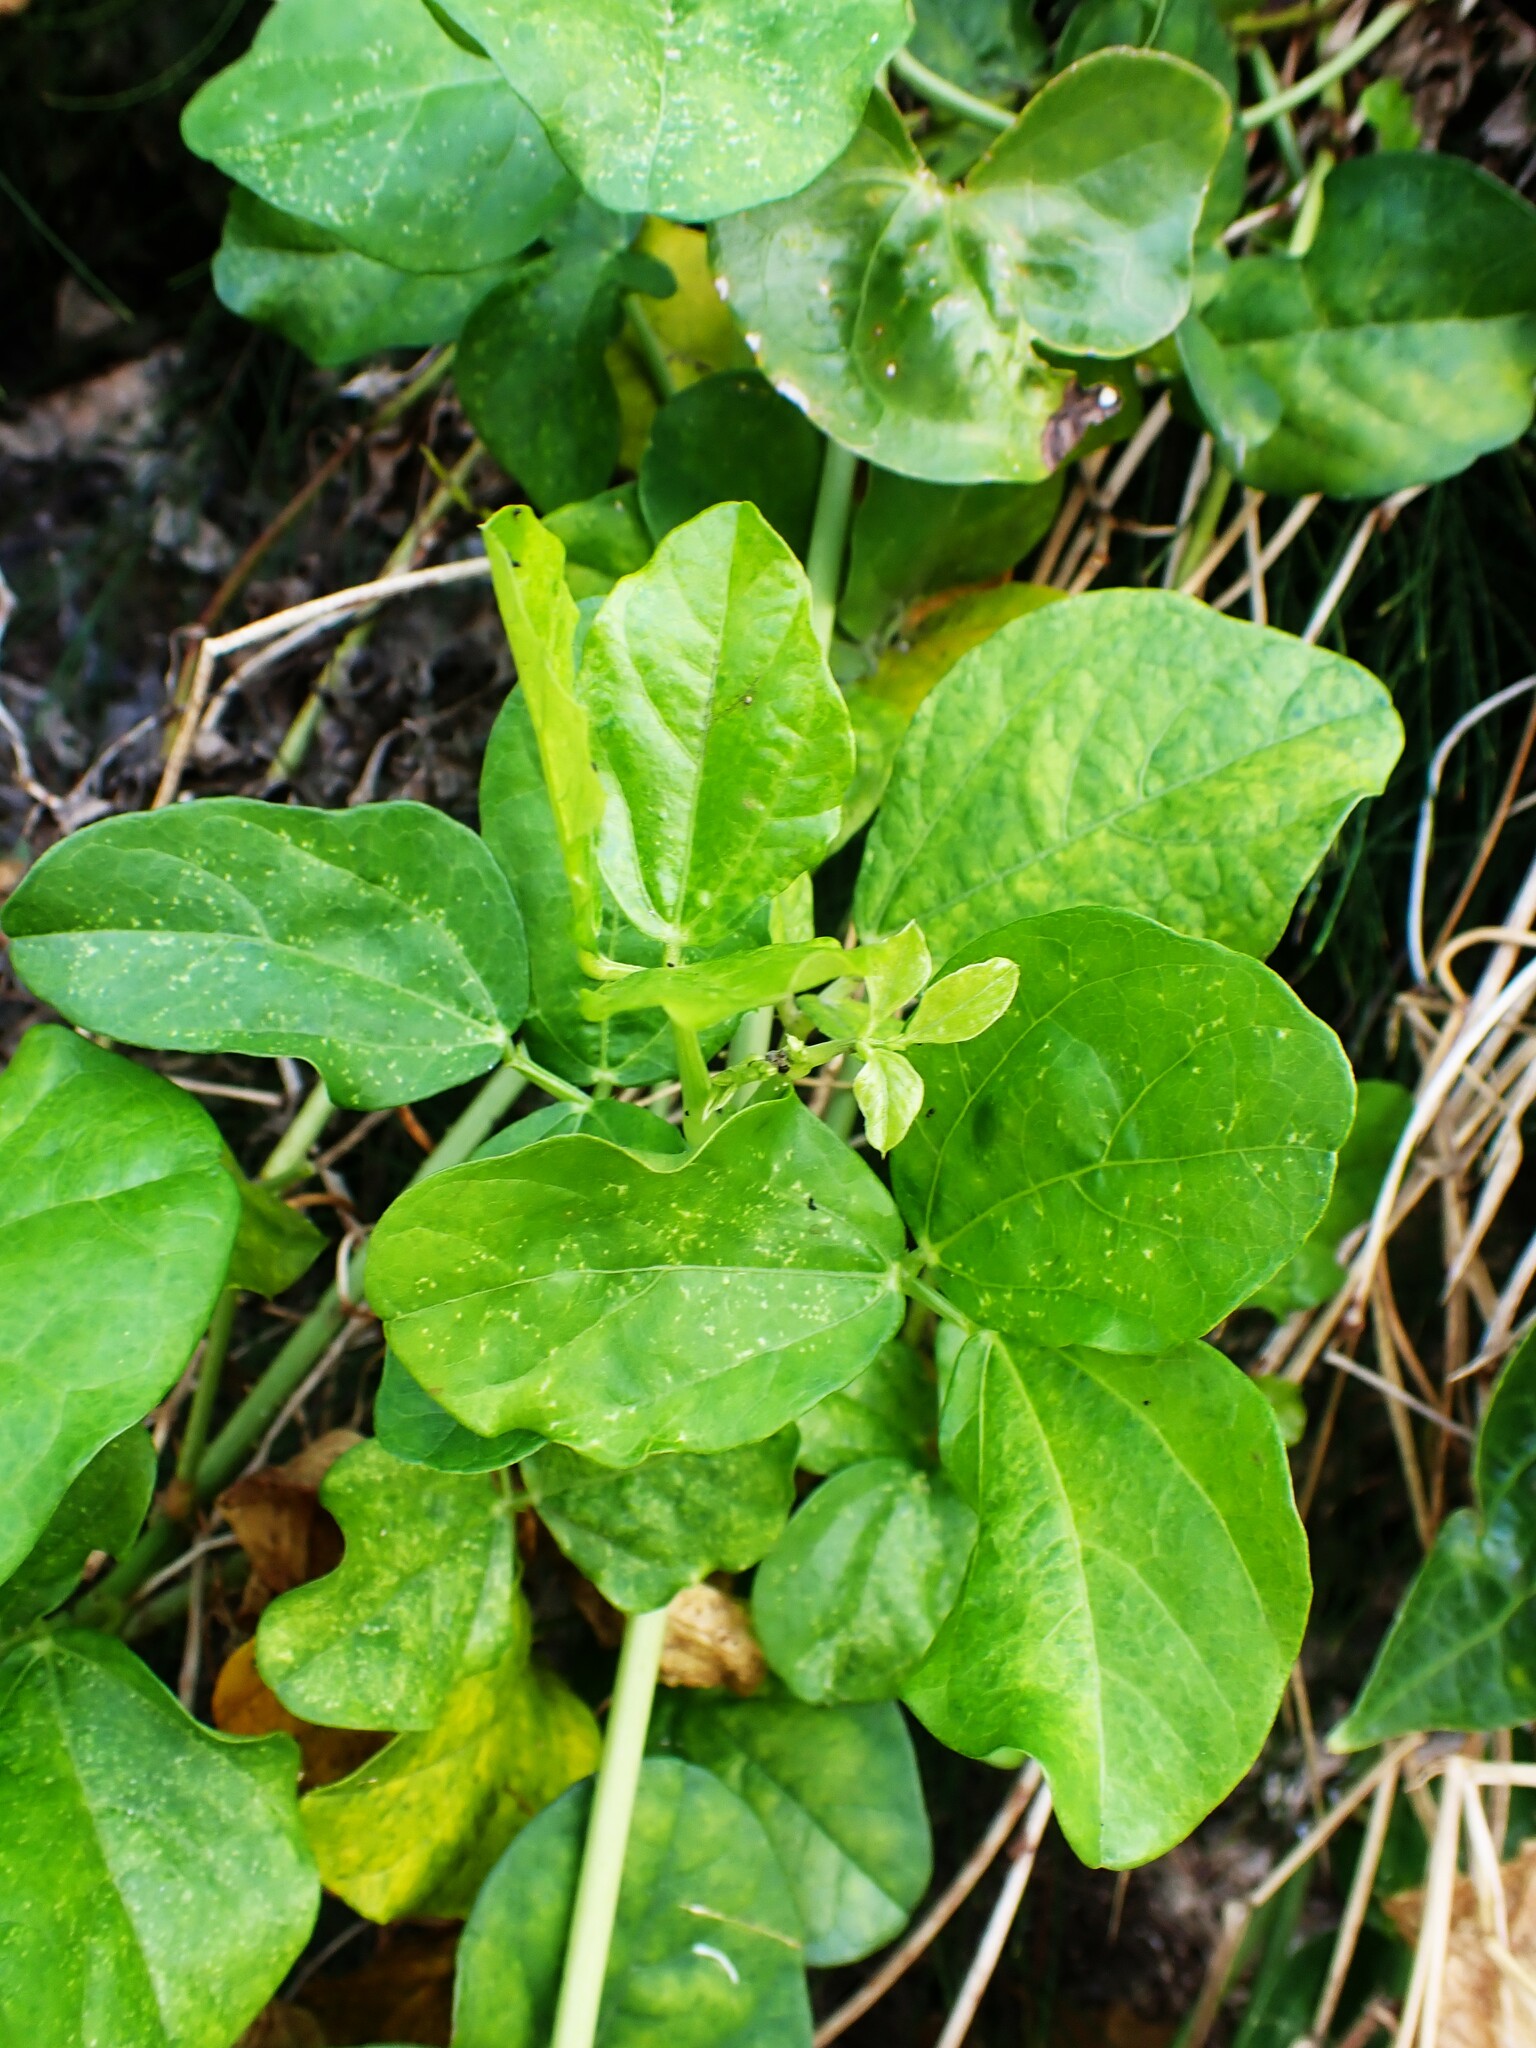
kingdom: Plantae
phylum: Tracheophyta
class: Magnoliopsida
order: Fabales
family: Fabaceae
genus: Vigna
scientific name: Vigna marina
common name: Dune-bean
